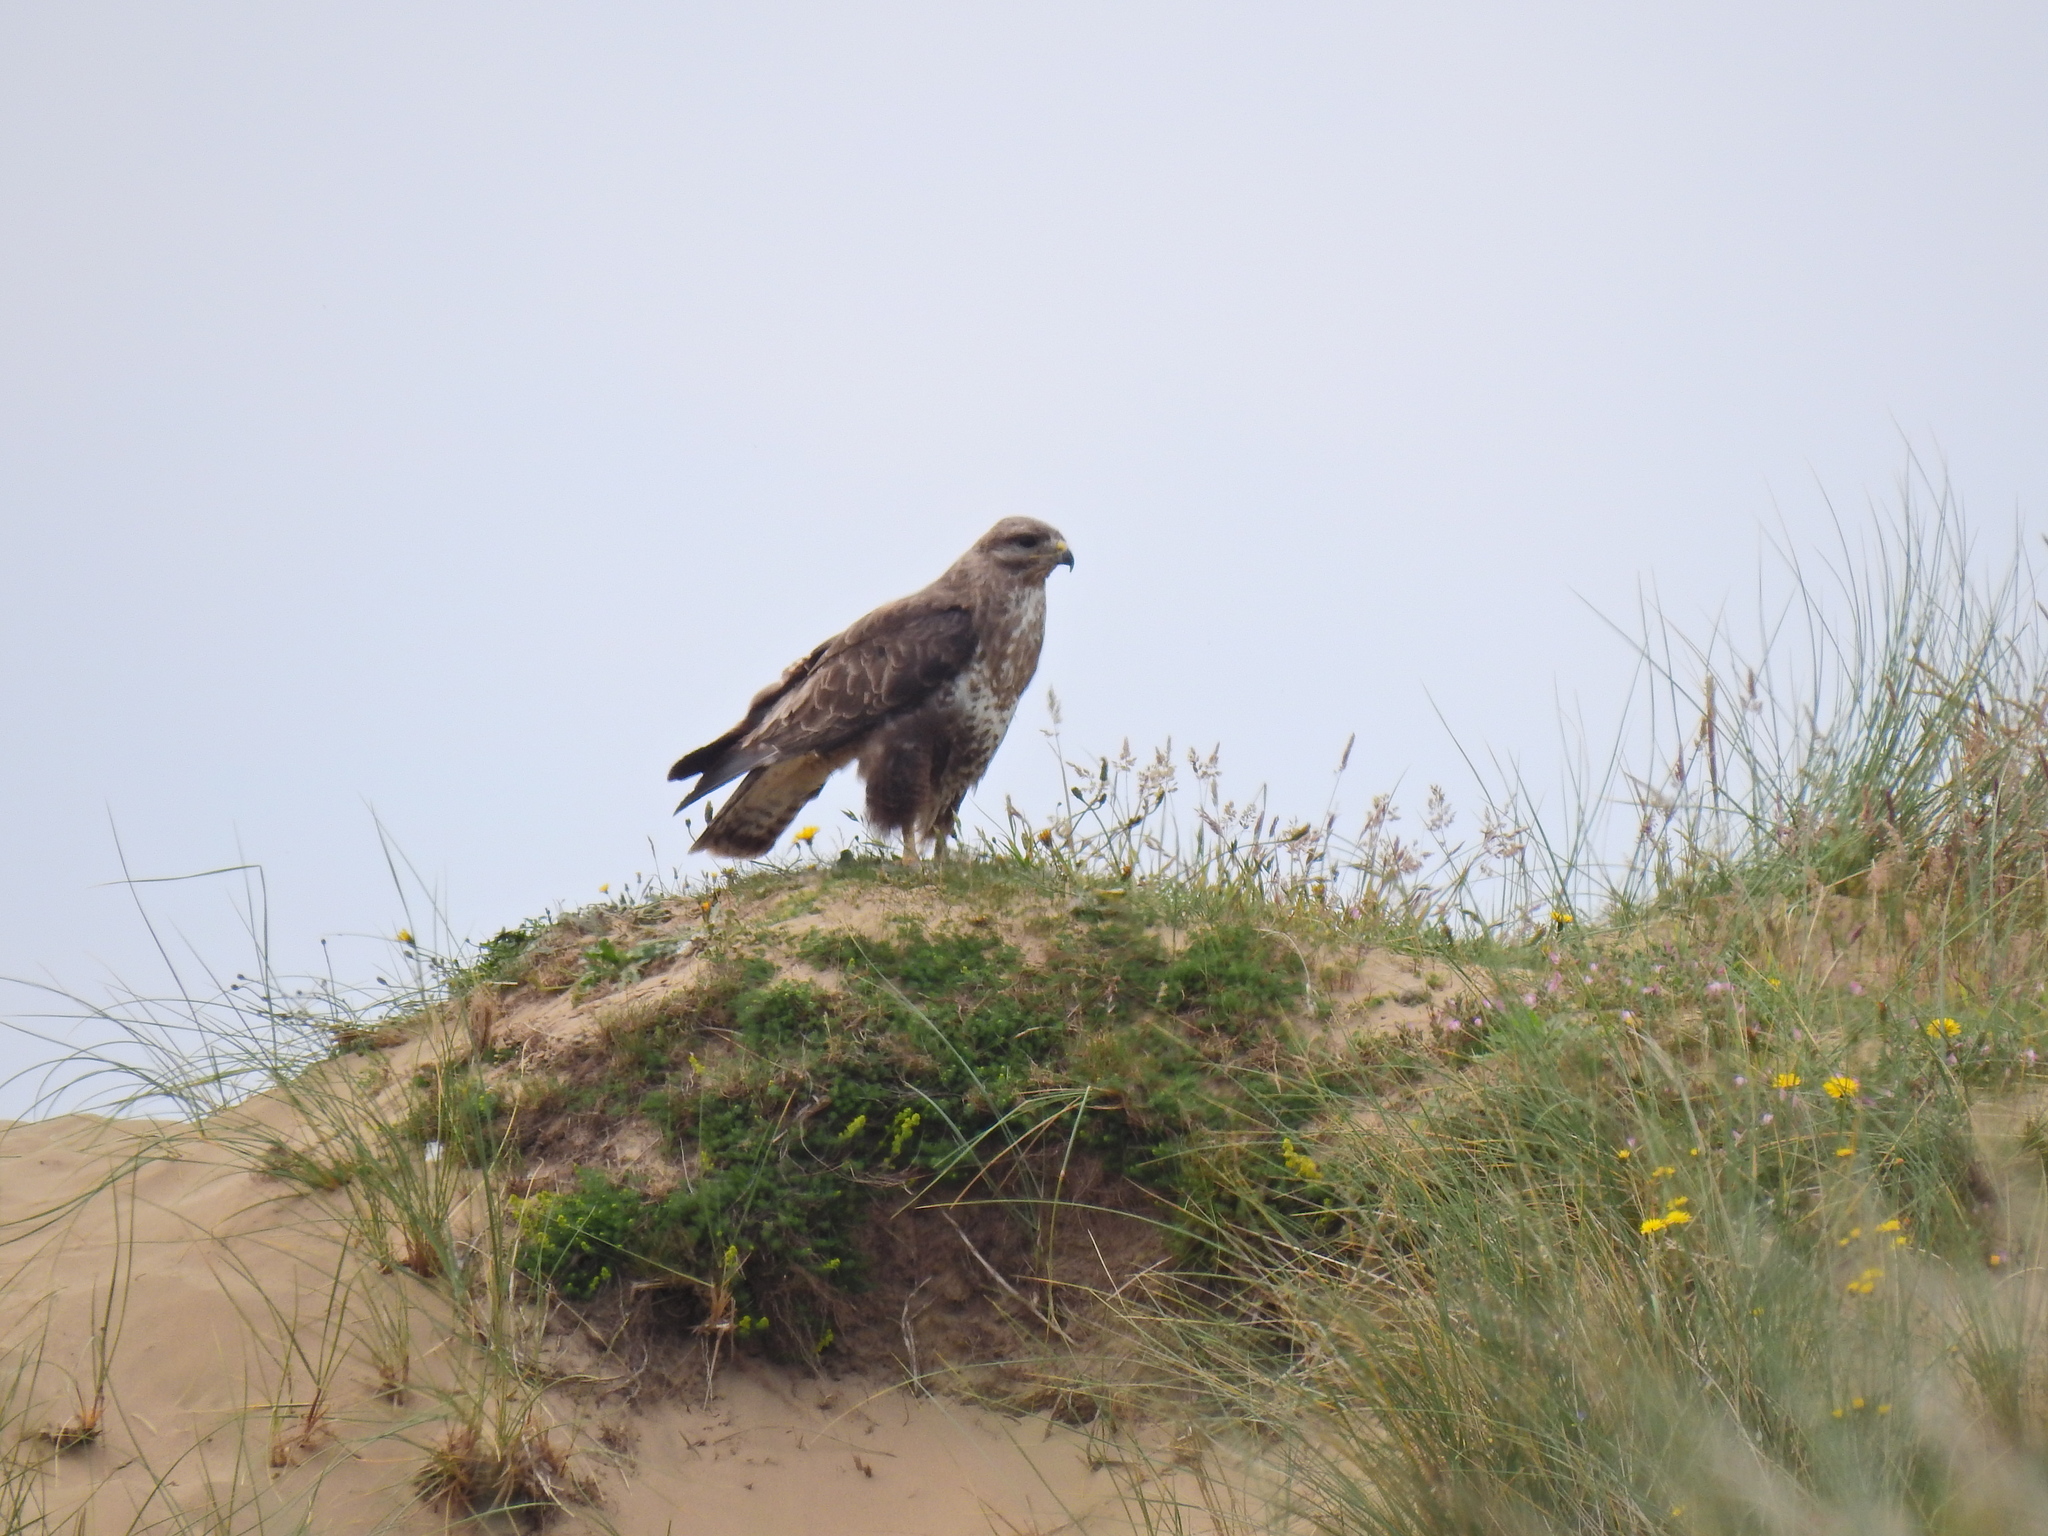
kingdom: Animalia
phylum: Chordata
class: Aves
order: Accipitriformes
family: Accipitridae
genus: Buteo
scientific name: Buteo buteo
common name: Common buzzard
